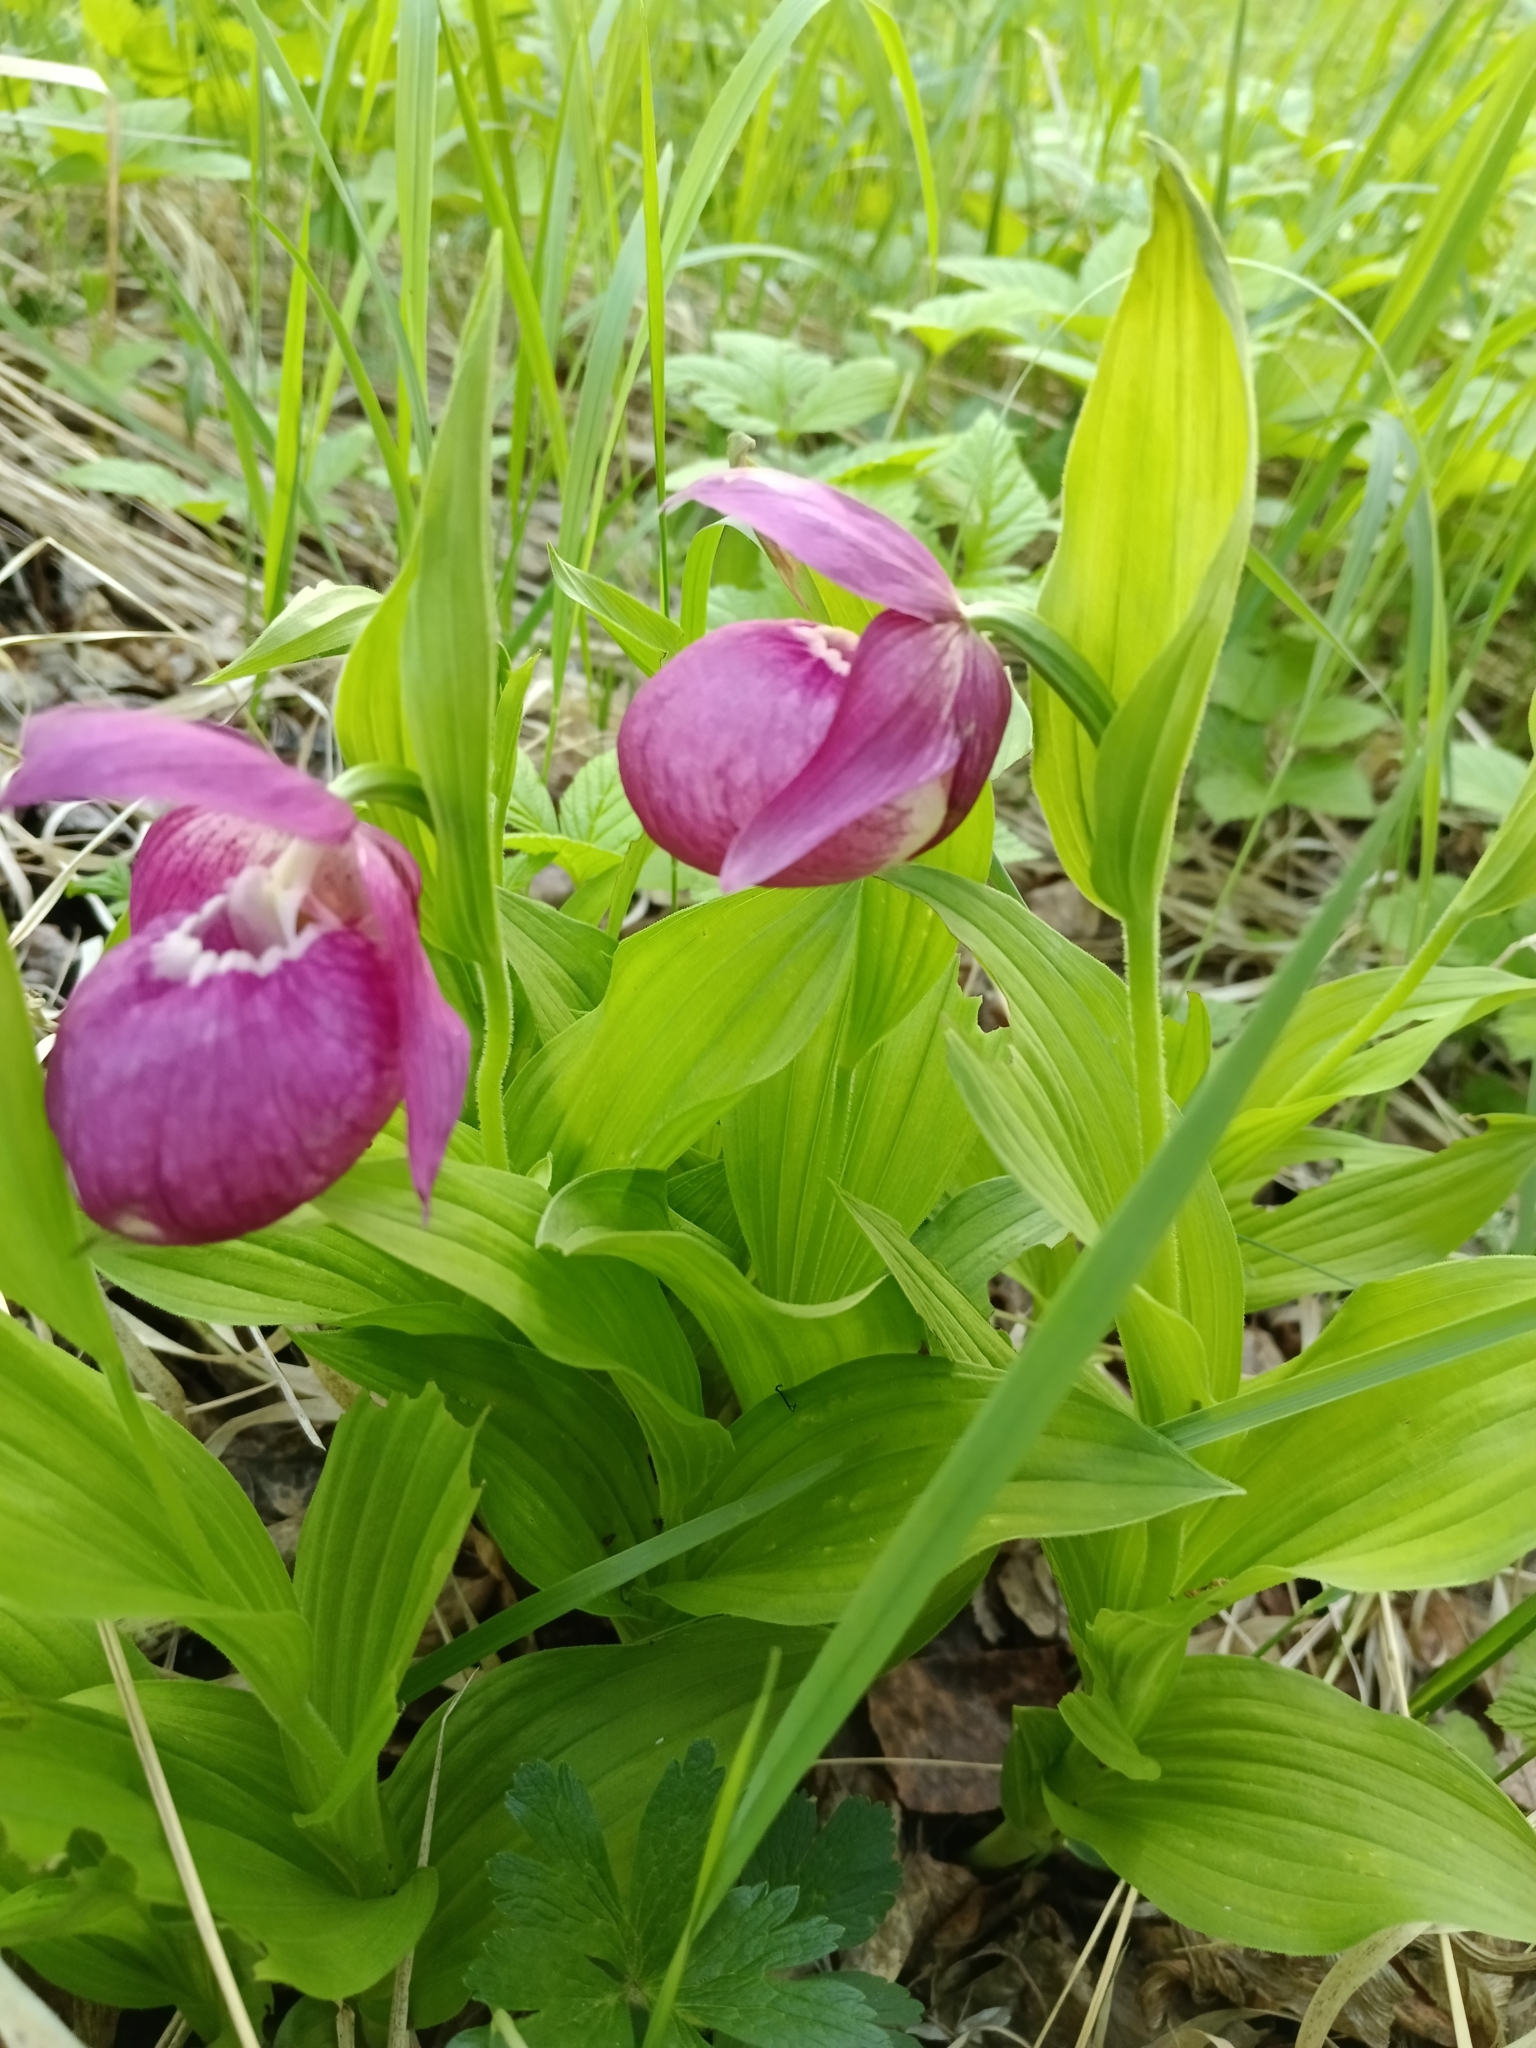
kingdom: Plantae
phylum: Tracheophyta
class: Liliopsida
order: Asparagales
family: Orchidaceae
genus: Cypripedium
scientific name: Cypripedium macranthos
